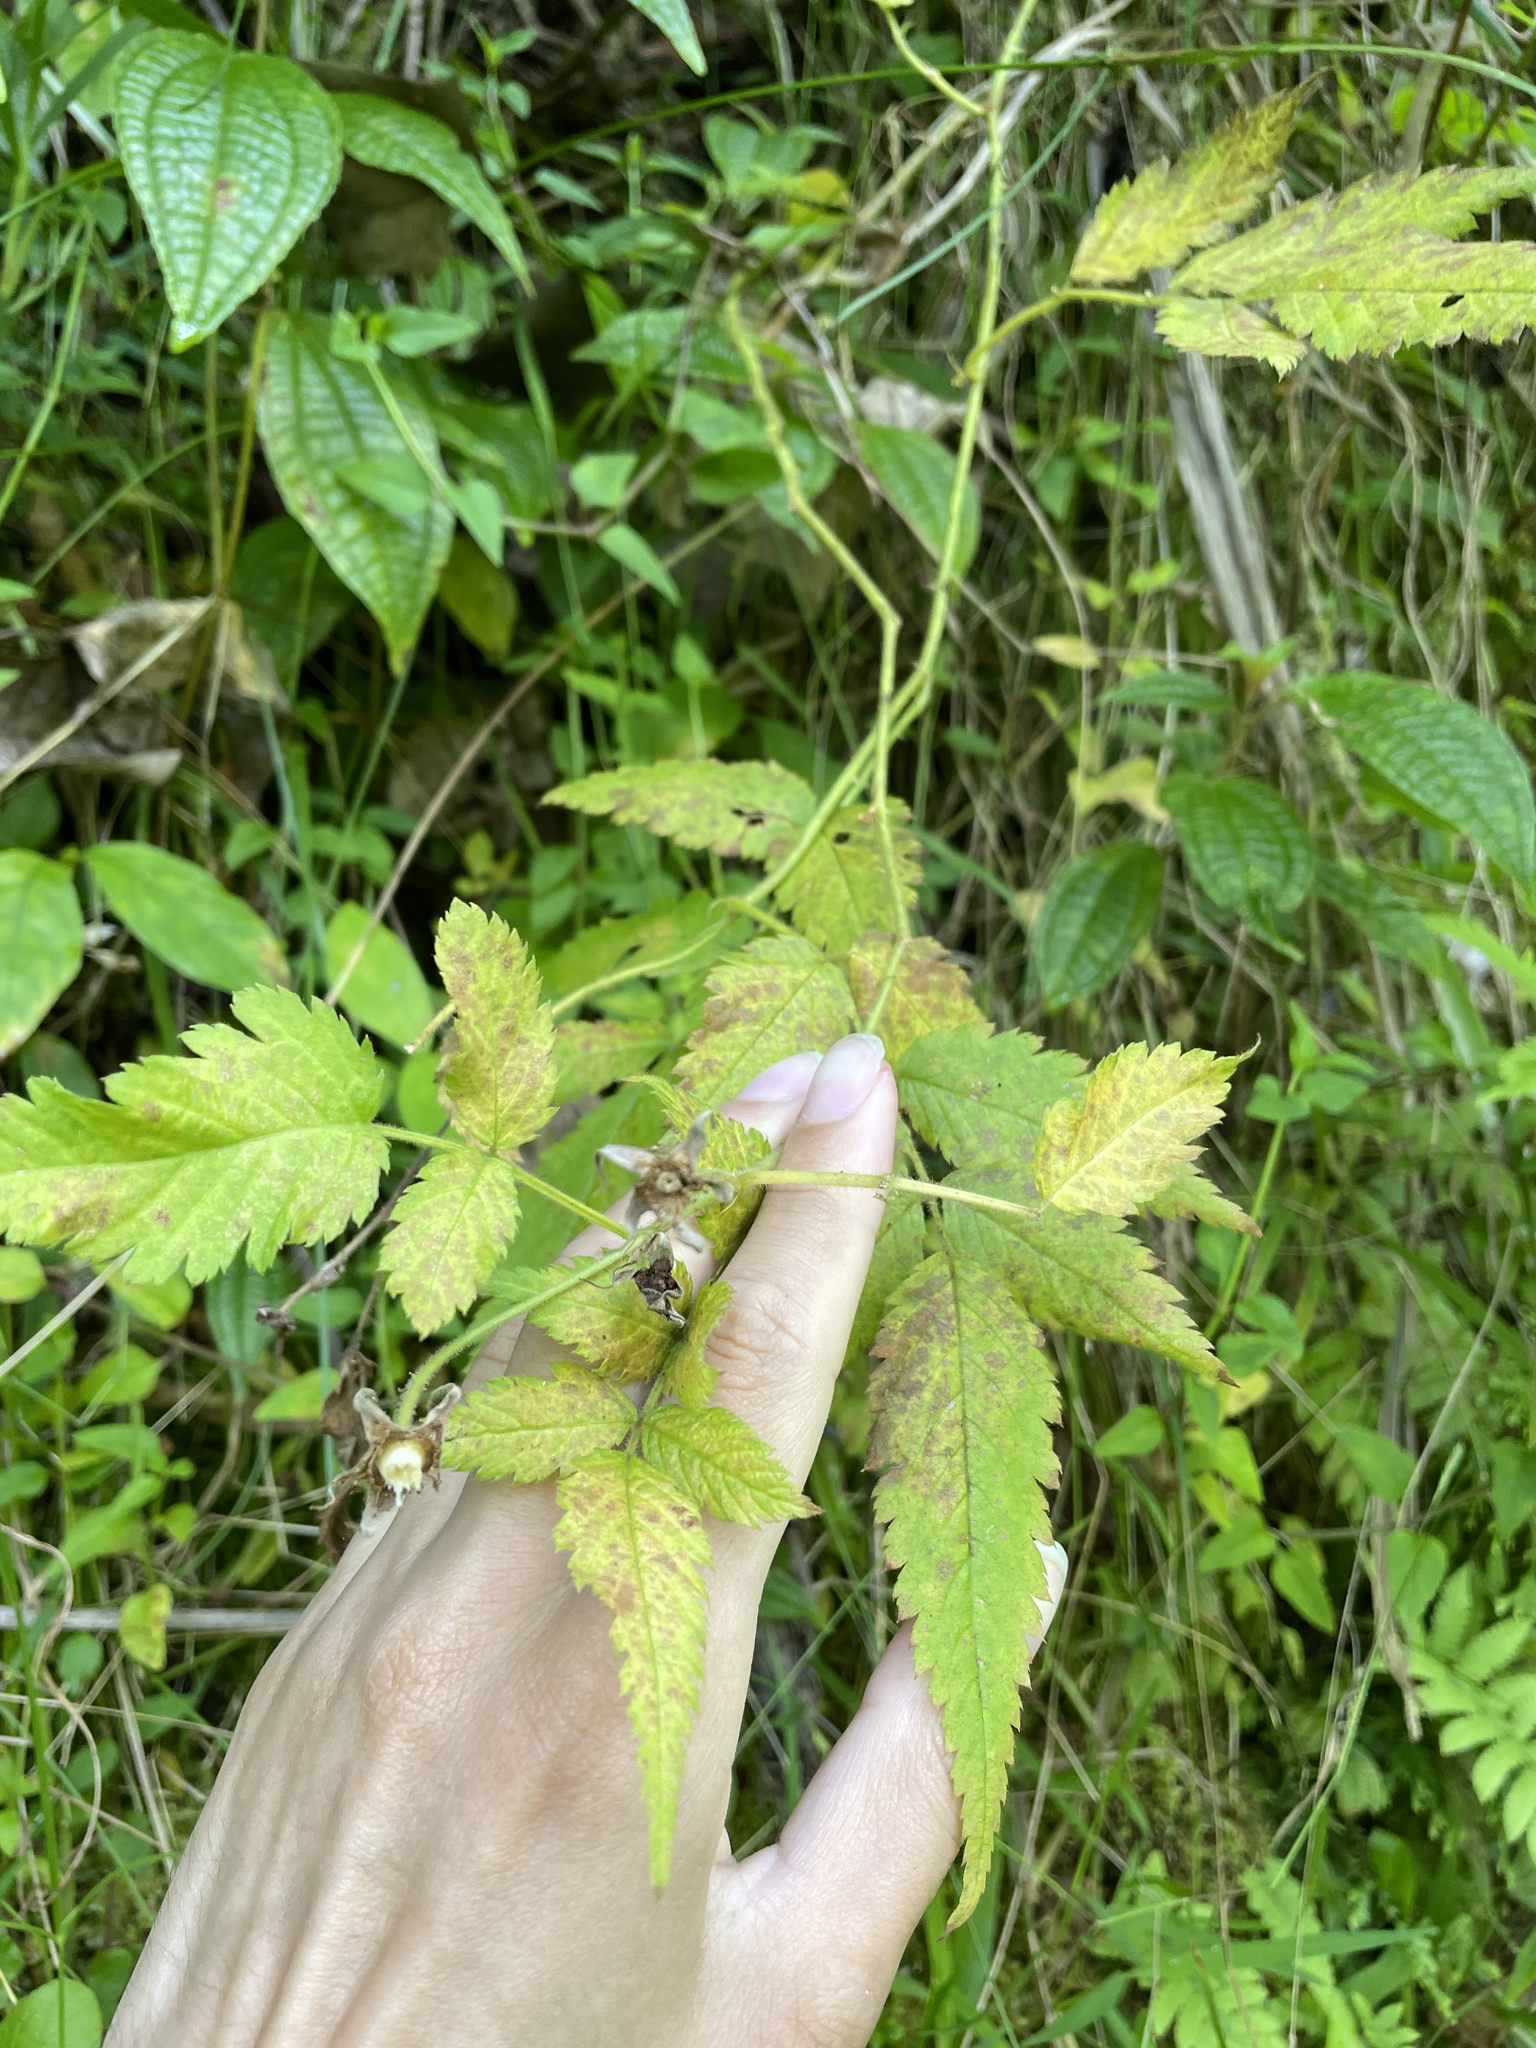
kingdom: Plantae
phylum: Tracheophyta
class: Magnoliopsida
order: Rosales
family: Rosaceae
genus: Rubus
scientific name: Rubus rosifolius
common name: Roseleaf raspberry
